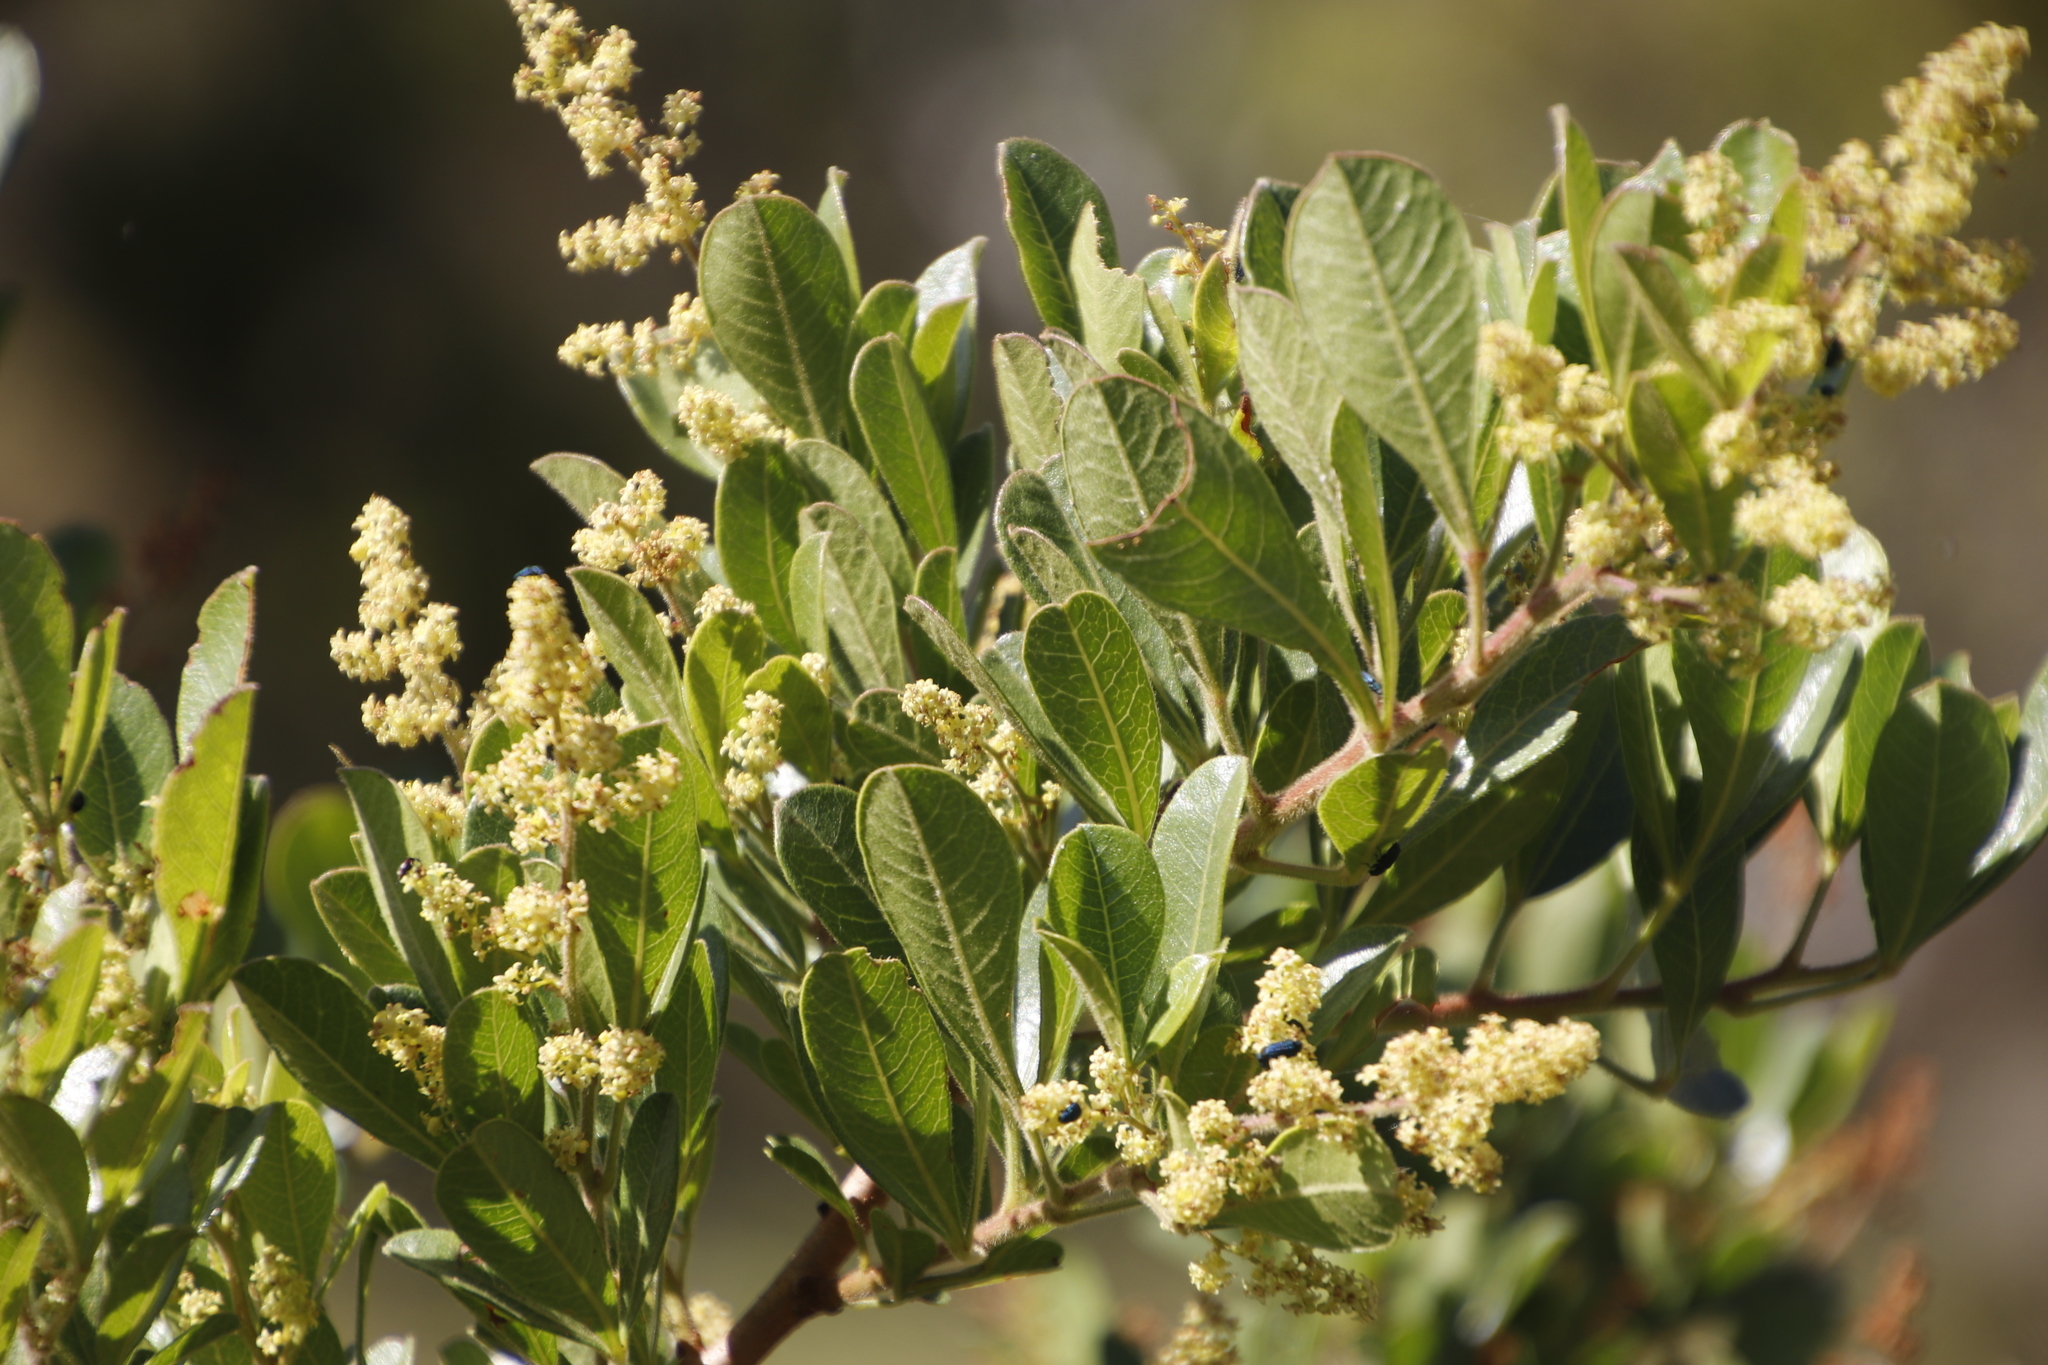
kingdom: Plantae
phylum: Tracheophyta
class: Magnoliopsida
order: Sapindales
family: Anacardiaceae
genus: Searsia
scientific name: Searsia laevigata
